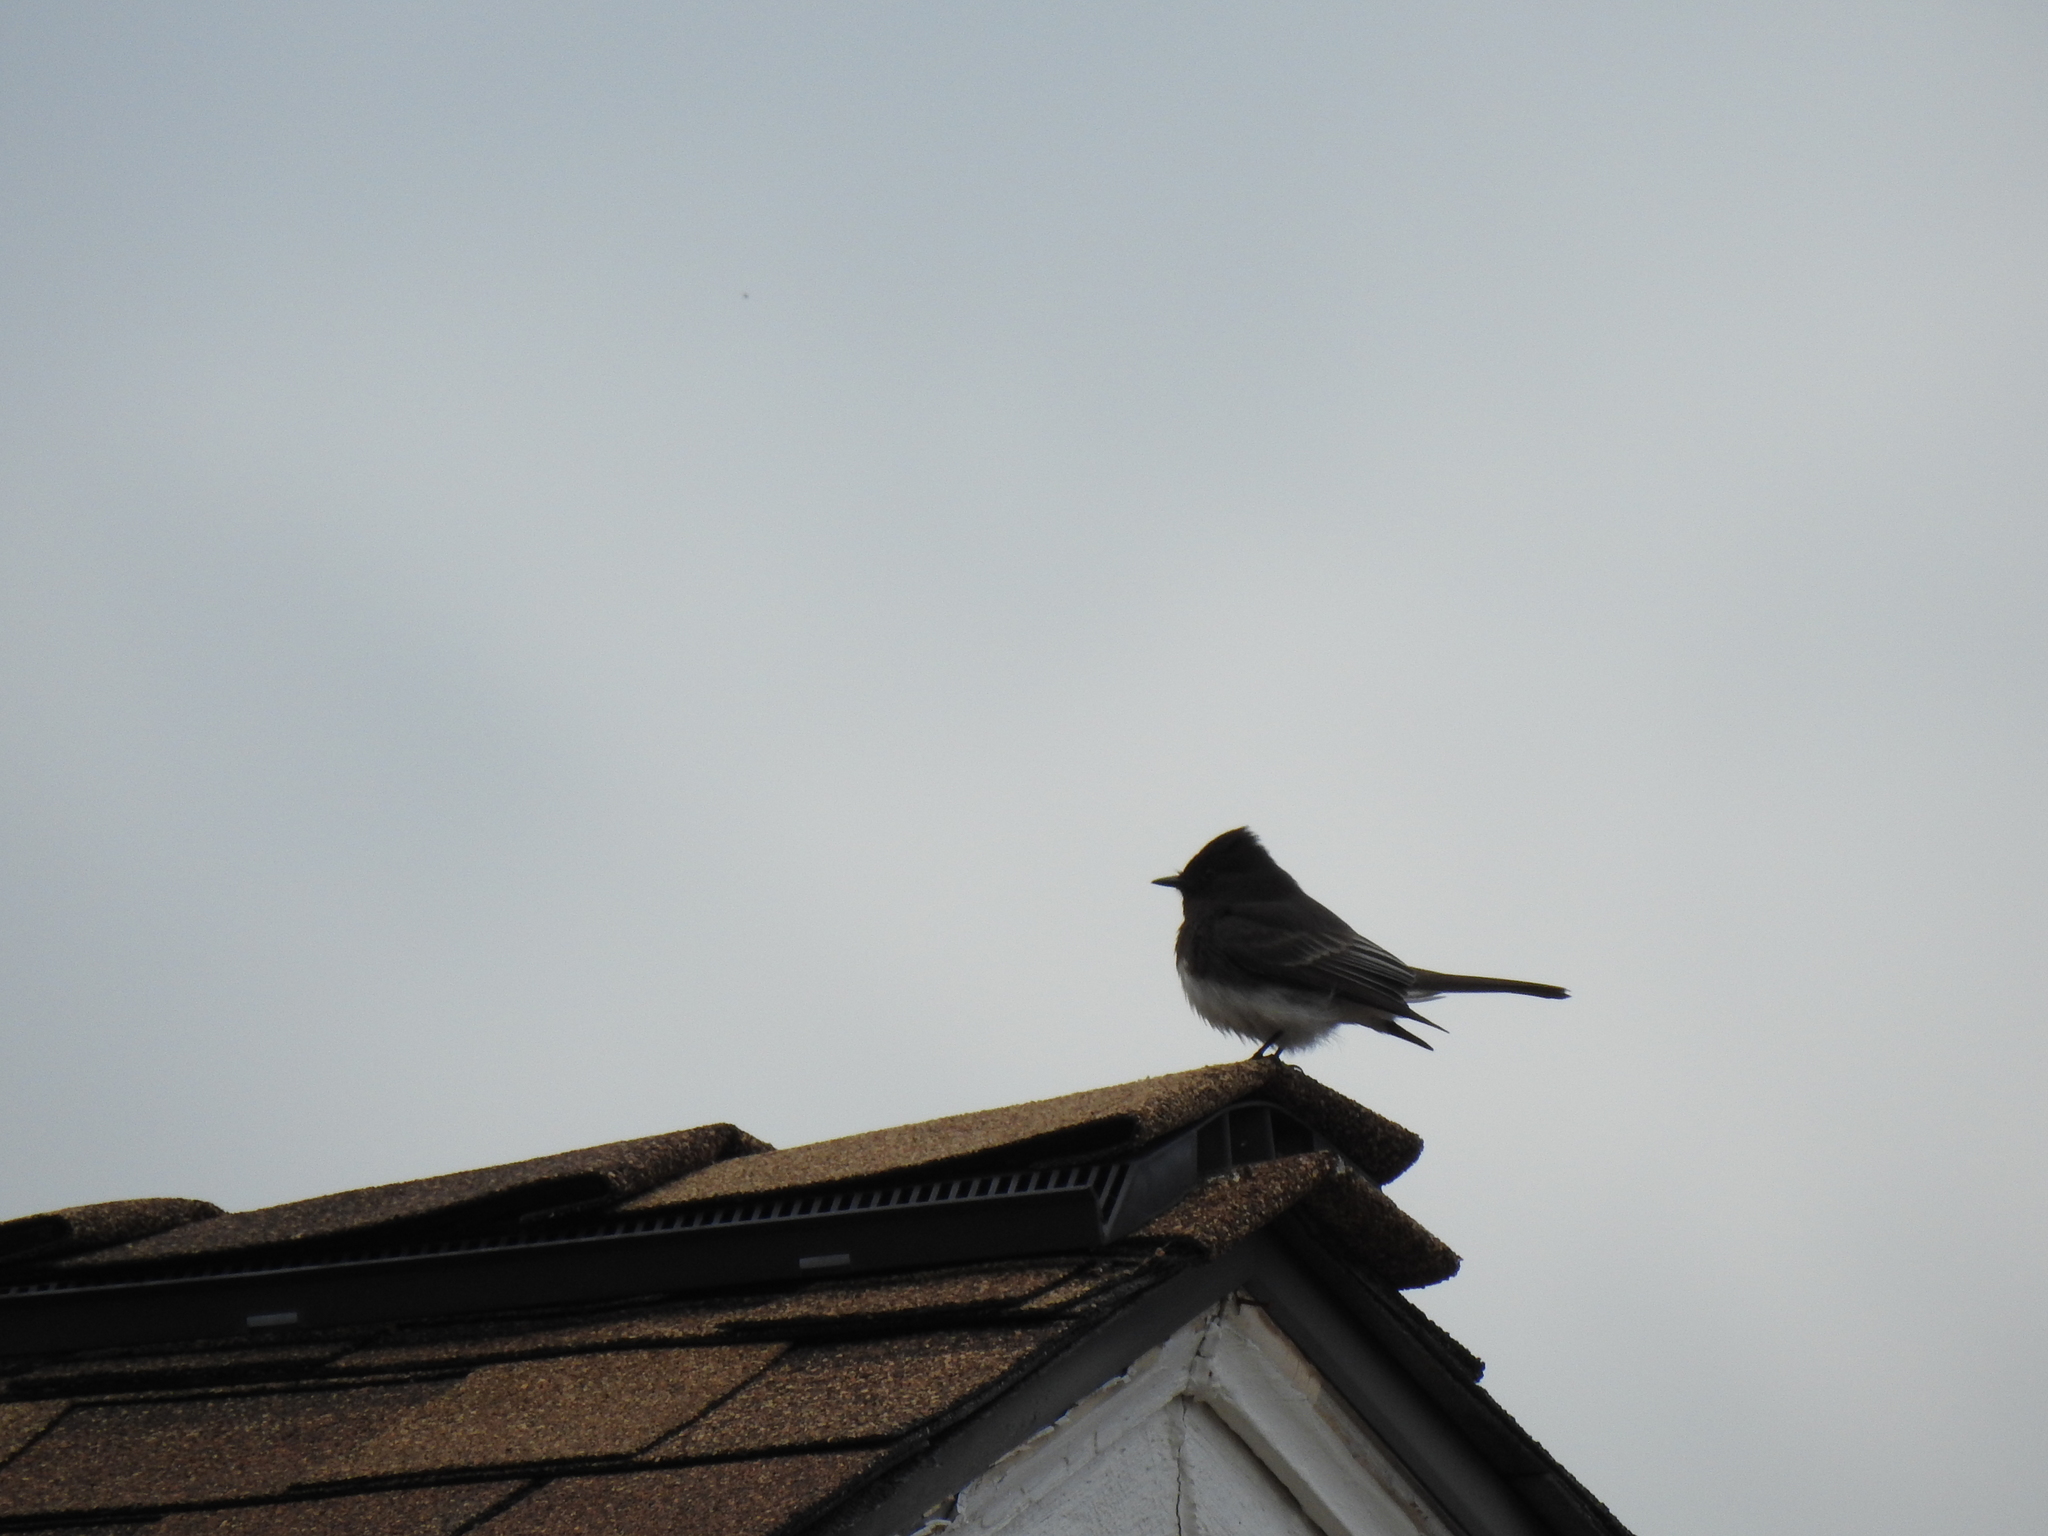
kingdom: Animalia
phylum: Chordata
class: Aves
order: Passeriformes
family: Tyrannidae
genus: Sayornis
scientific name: Sayornis nigricans
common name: Black phoebe
